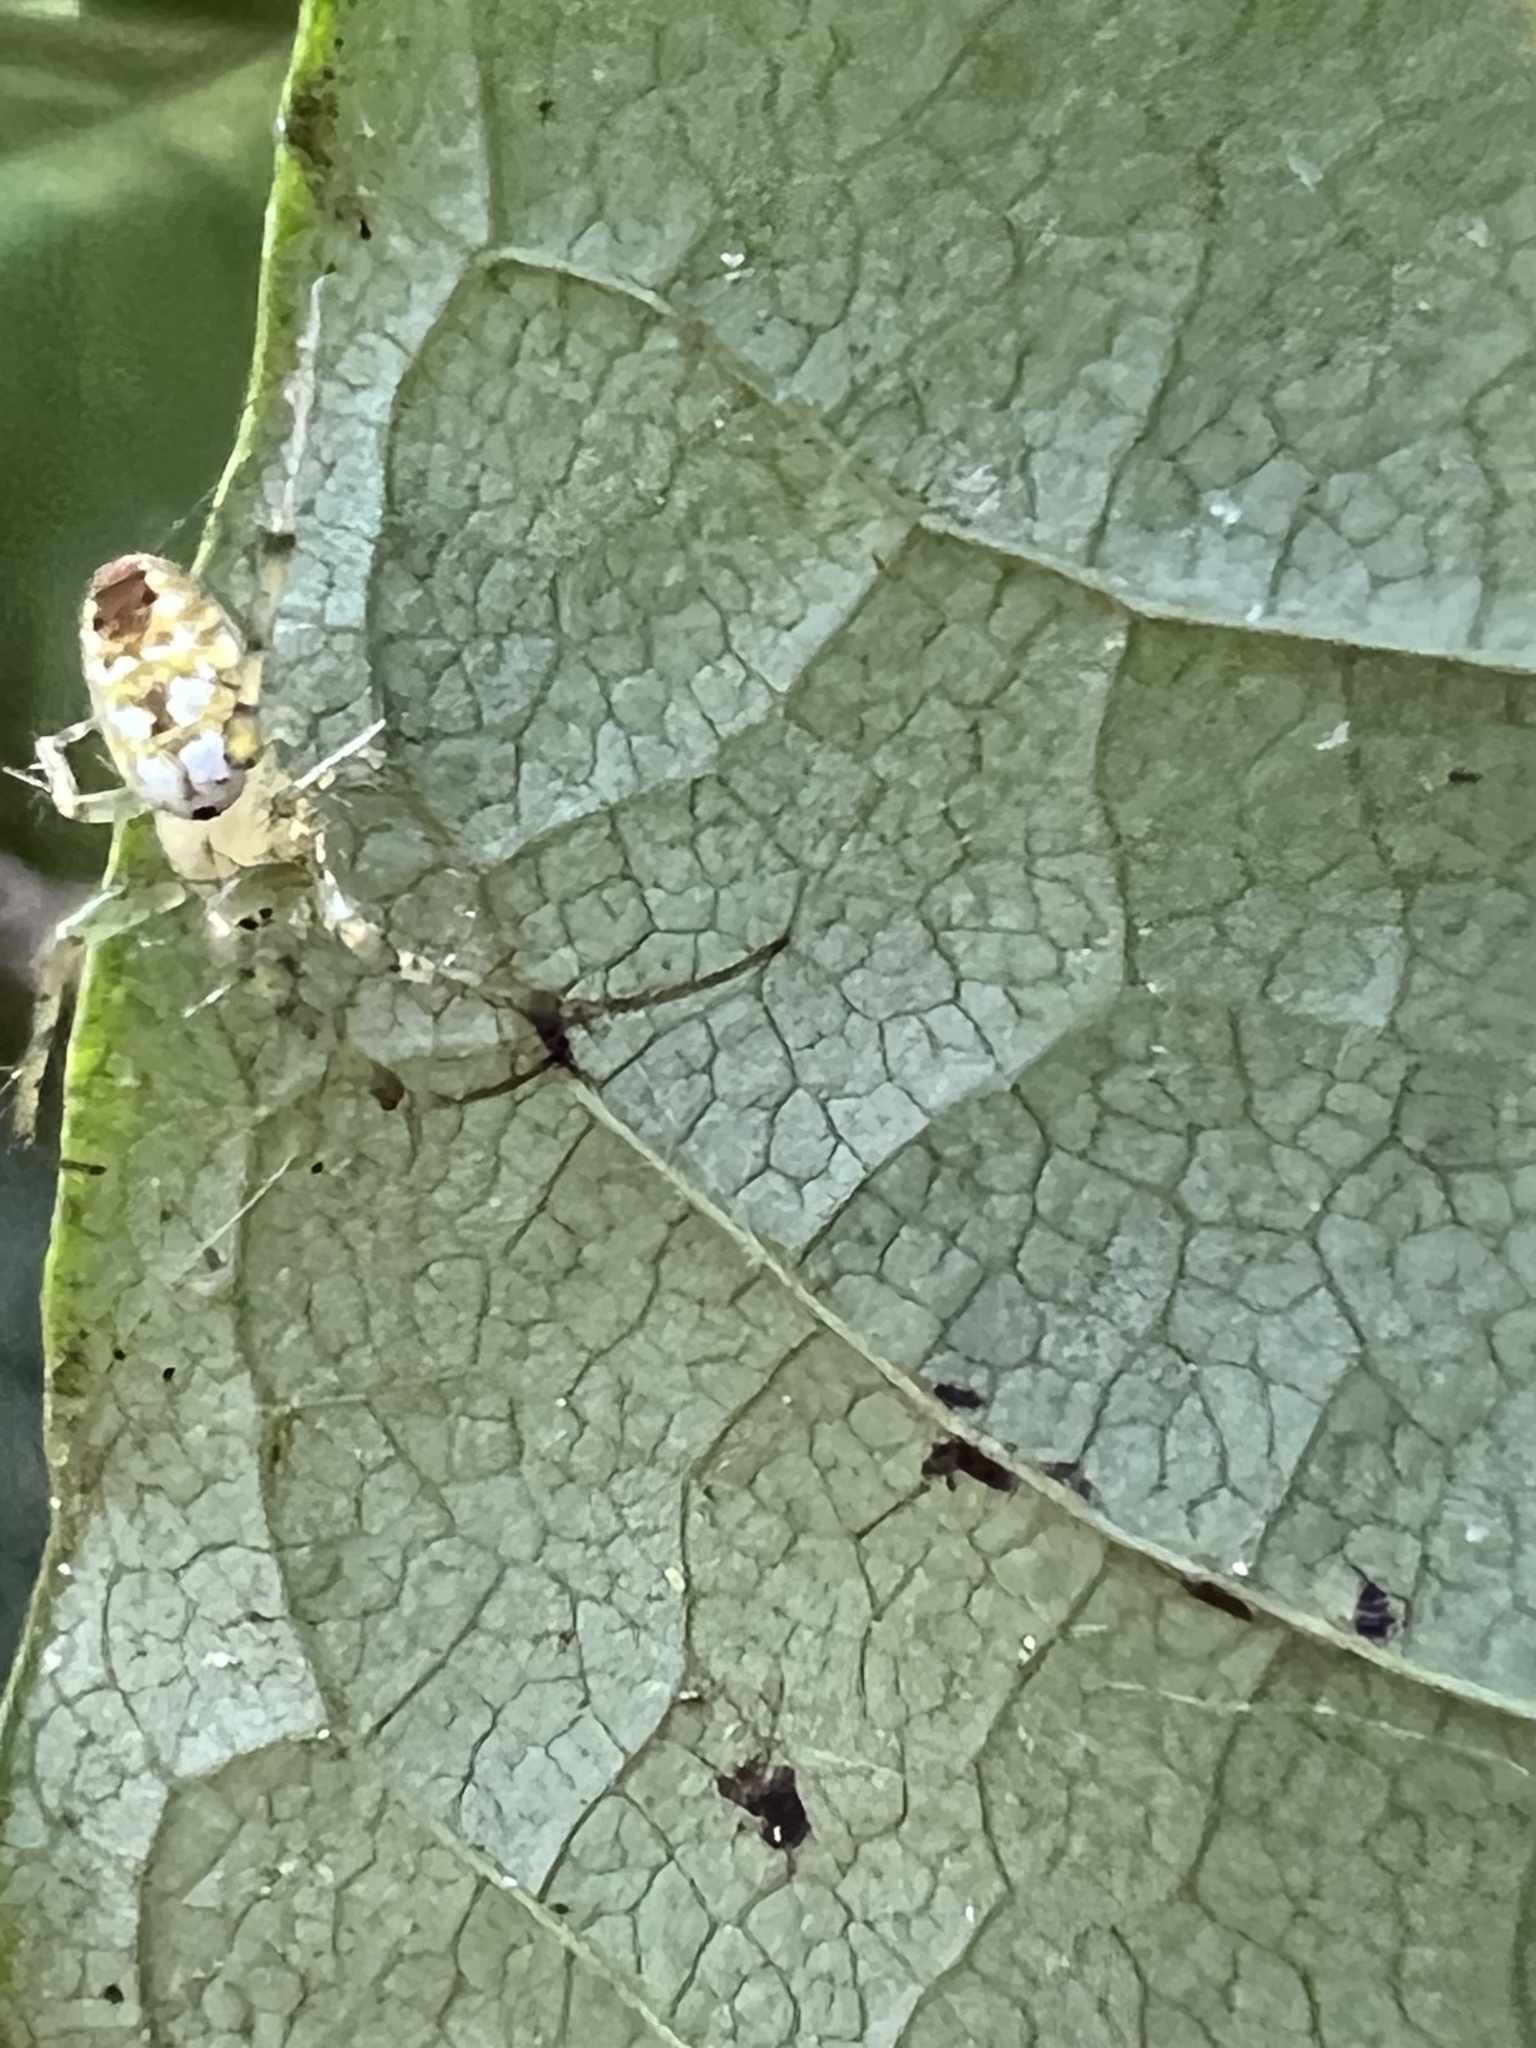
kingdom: Animalia
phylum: Arthropoda
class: Arachnida
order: Araneae
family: Araneidae
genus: Mangora
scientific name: Mangora spiculata
